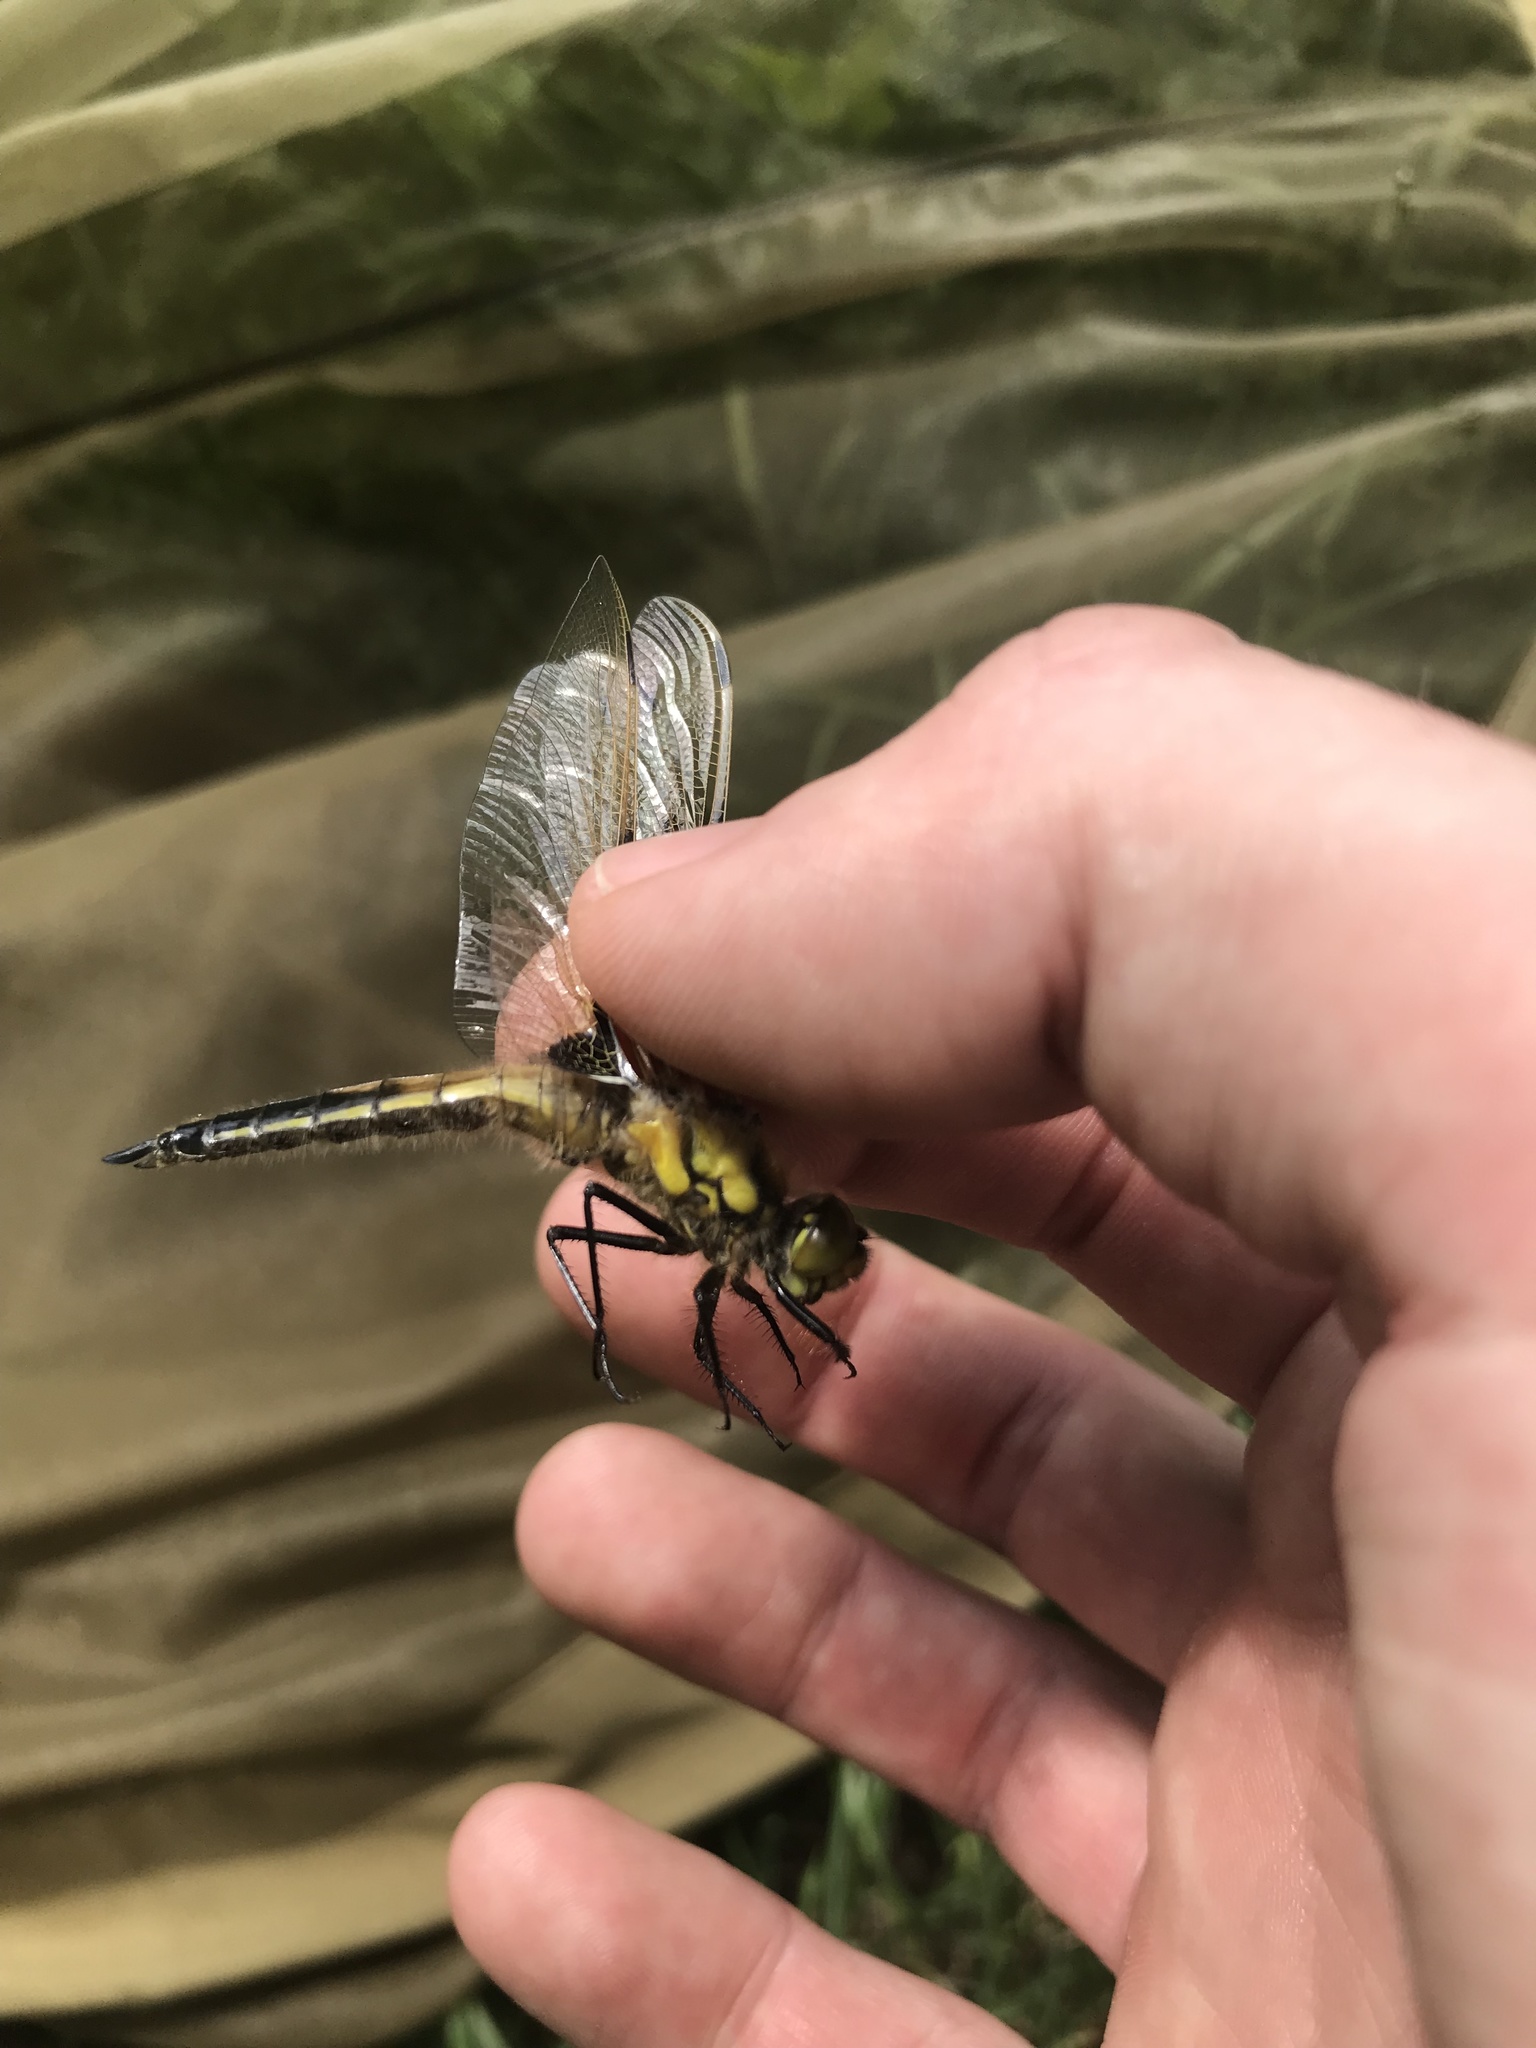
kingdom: Animalia
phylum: Arthropoda
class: Insecta
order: Odonata
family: Libellulidae
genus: Libellula
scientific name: Libellula quadrimaculata
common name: Four-spotted chaser
